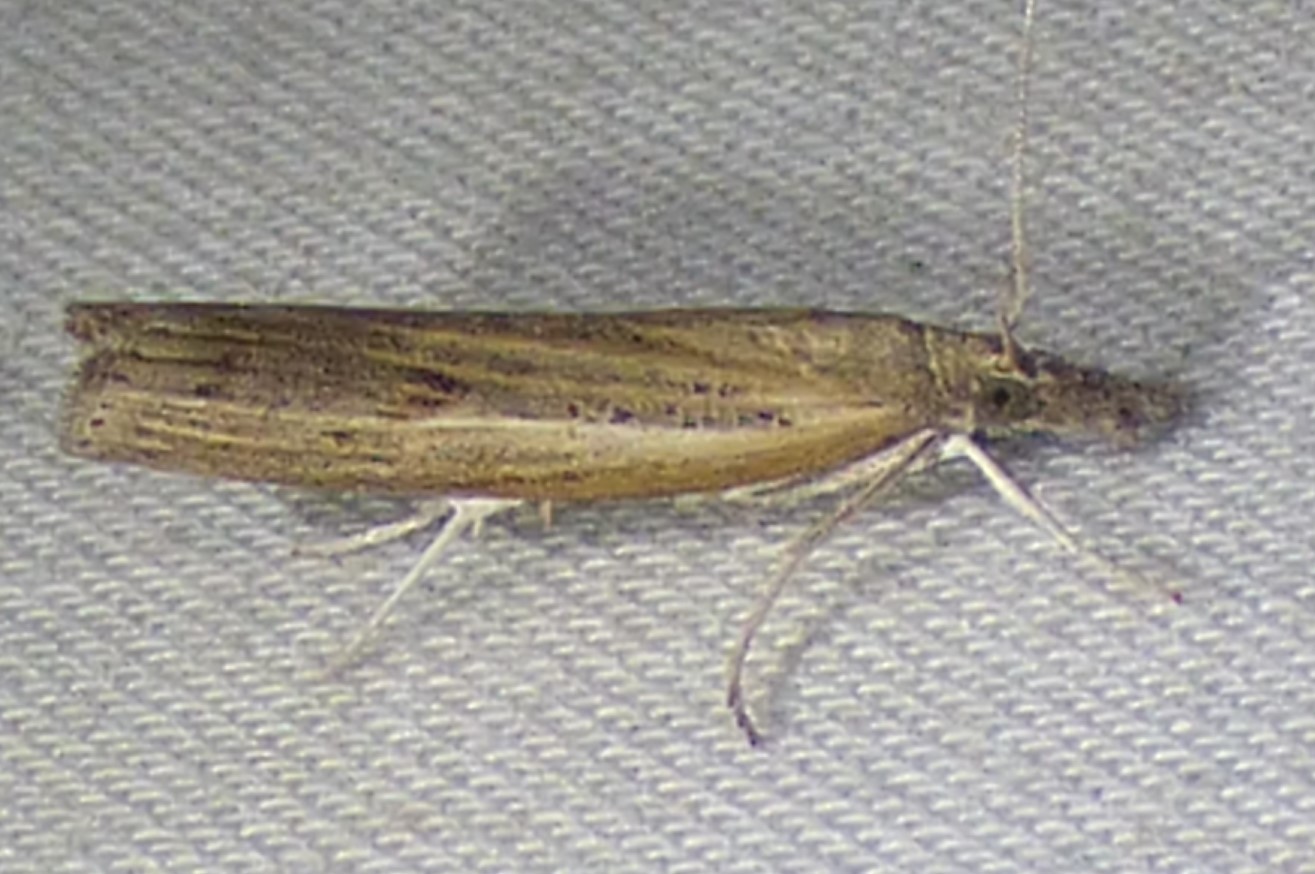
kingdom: Animalia
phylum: Arthropoda
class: Insecta
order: Lepidoptera
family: Crambidae
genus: Fissicrambus
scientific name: Fissicrambus mutabilis
